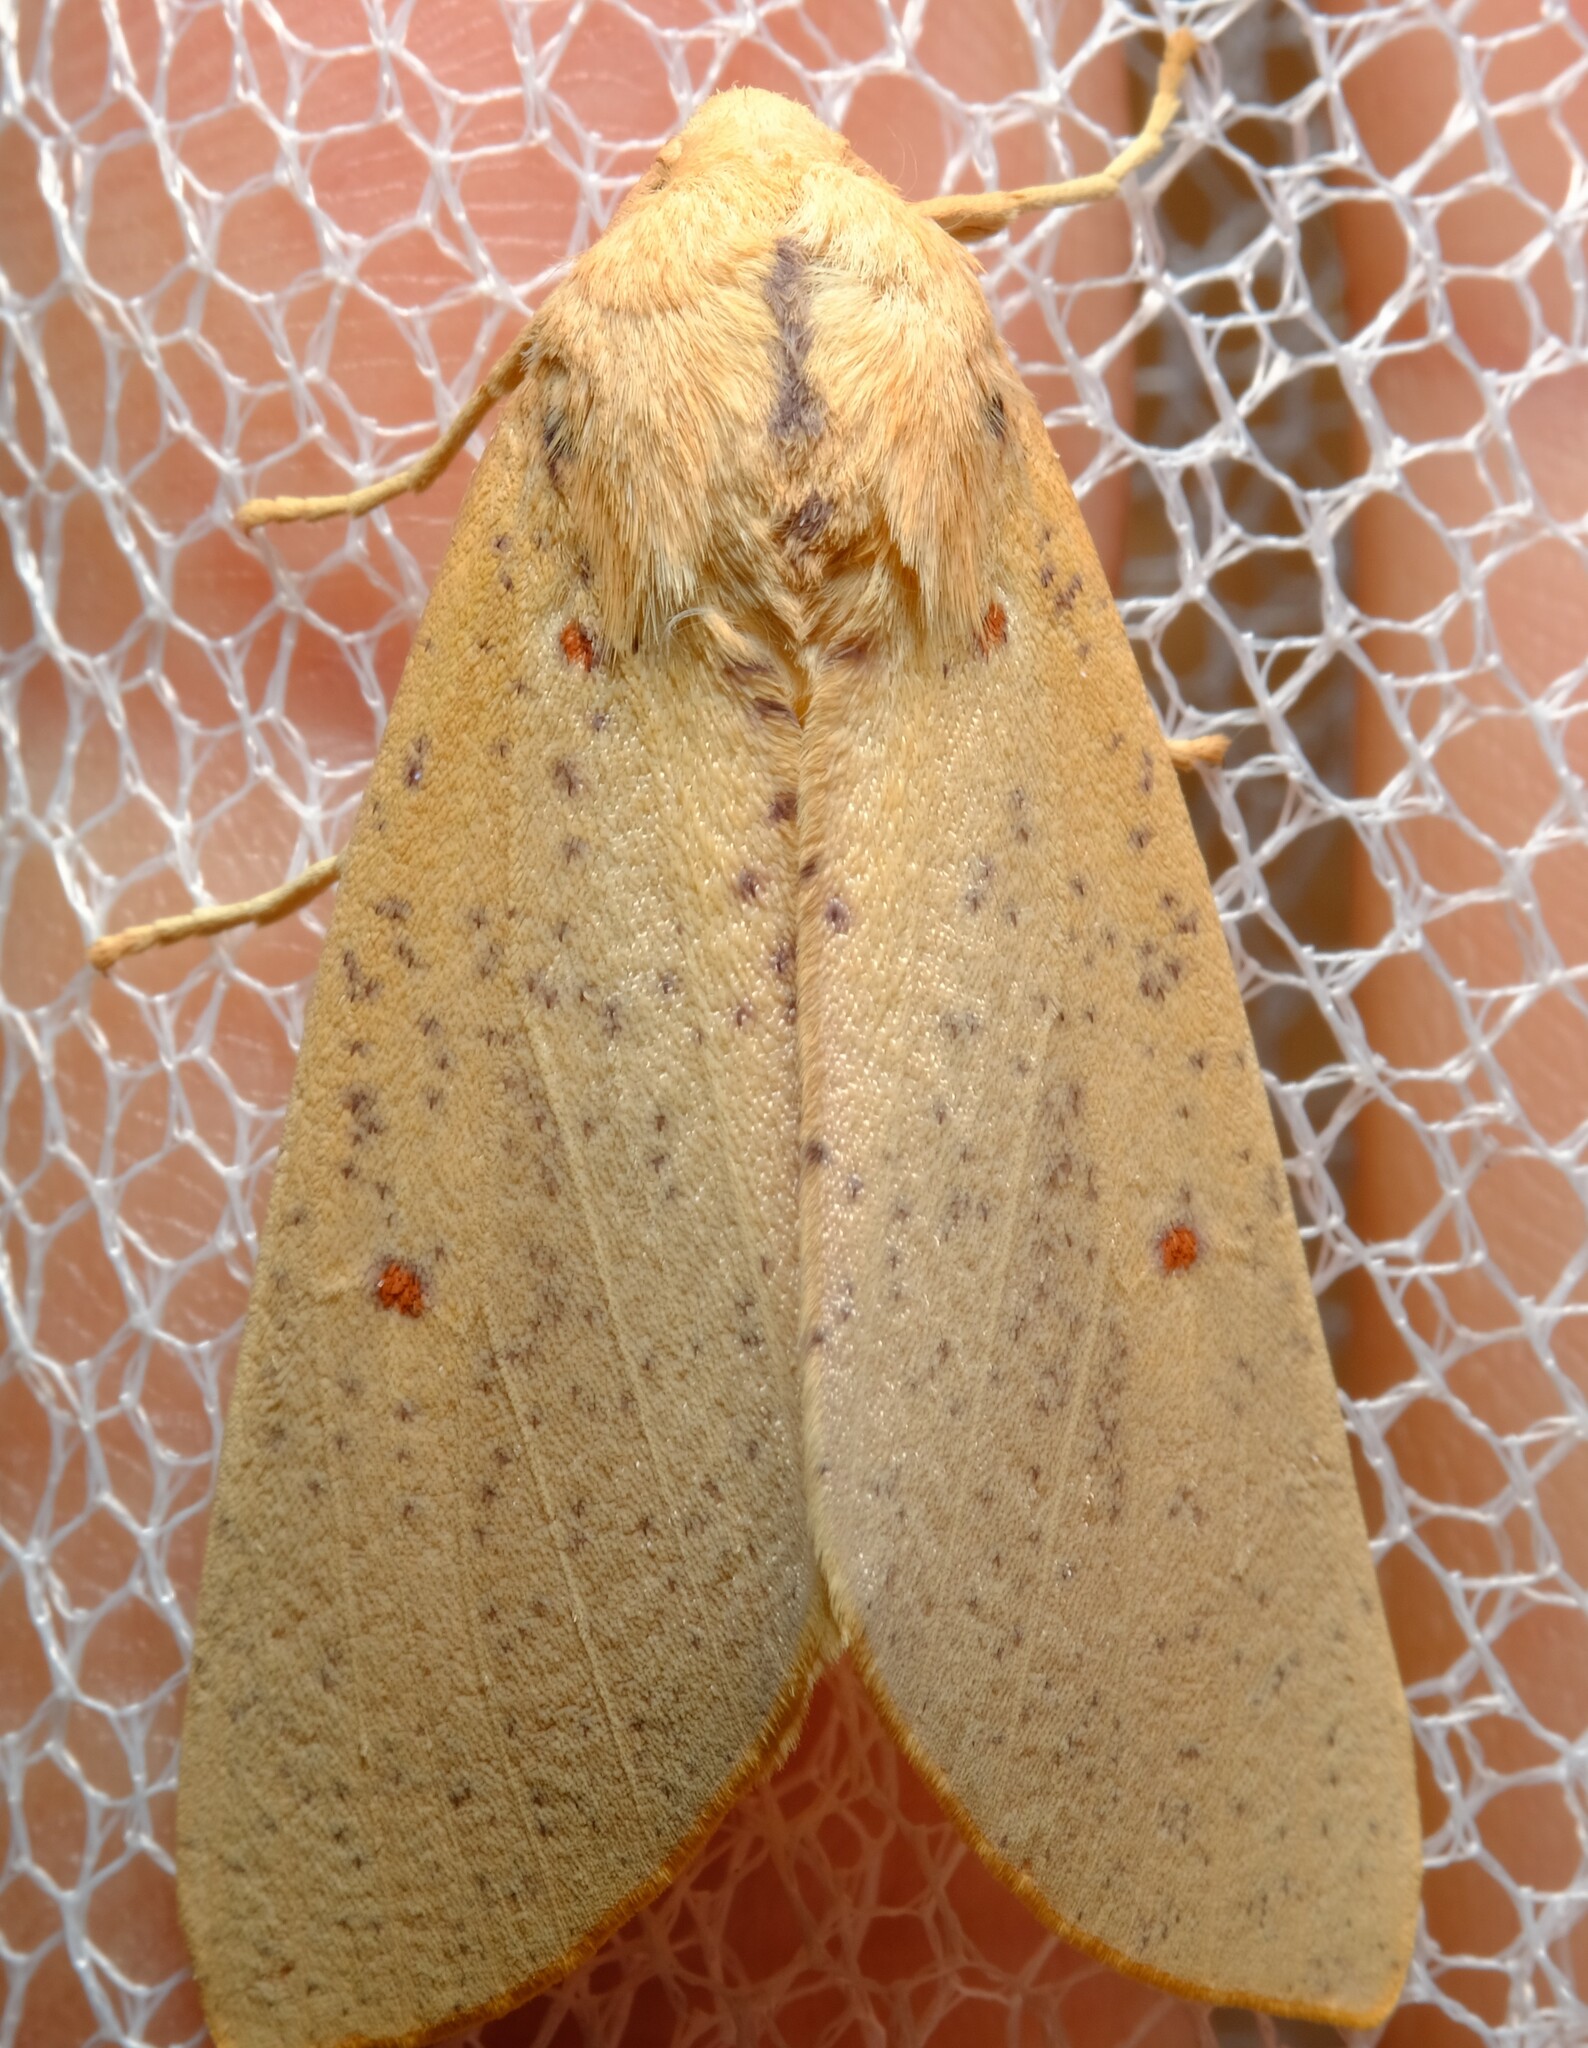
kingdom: Animalia
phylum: Arthropoda
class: Insecta
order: Lepidoptera
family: Geometridae
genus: Plesanemma
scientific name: Plesanemma fucata
